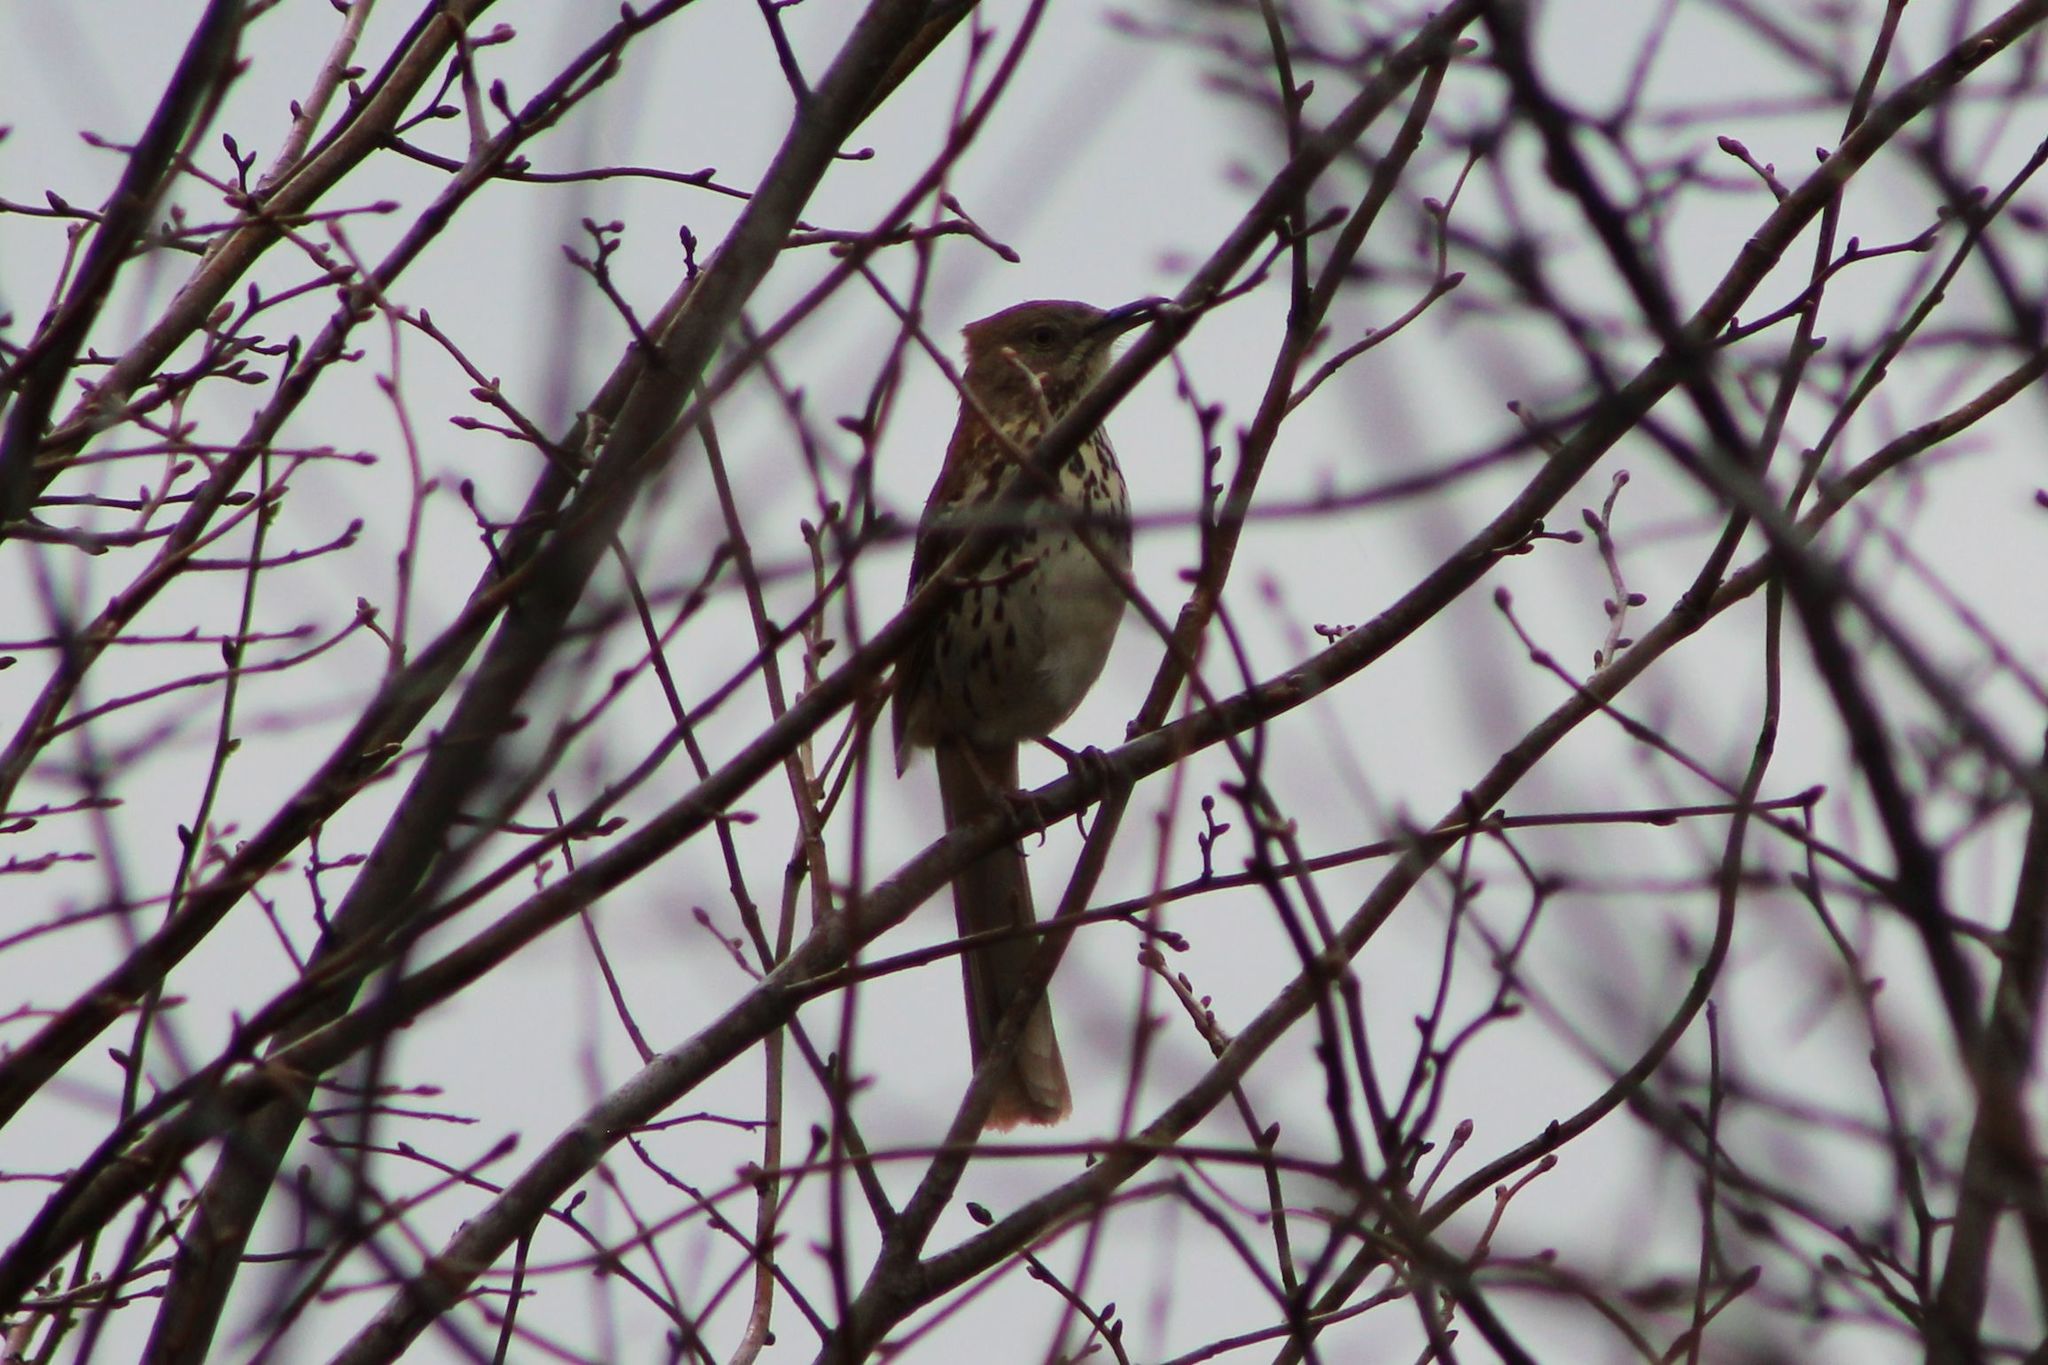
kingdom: Animalia
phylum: Chordata
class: Aves
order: Passeriformes
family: Mimidae
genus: Toxostoma
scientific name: Toxostoma rufum
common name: Brown thrasher
